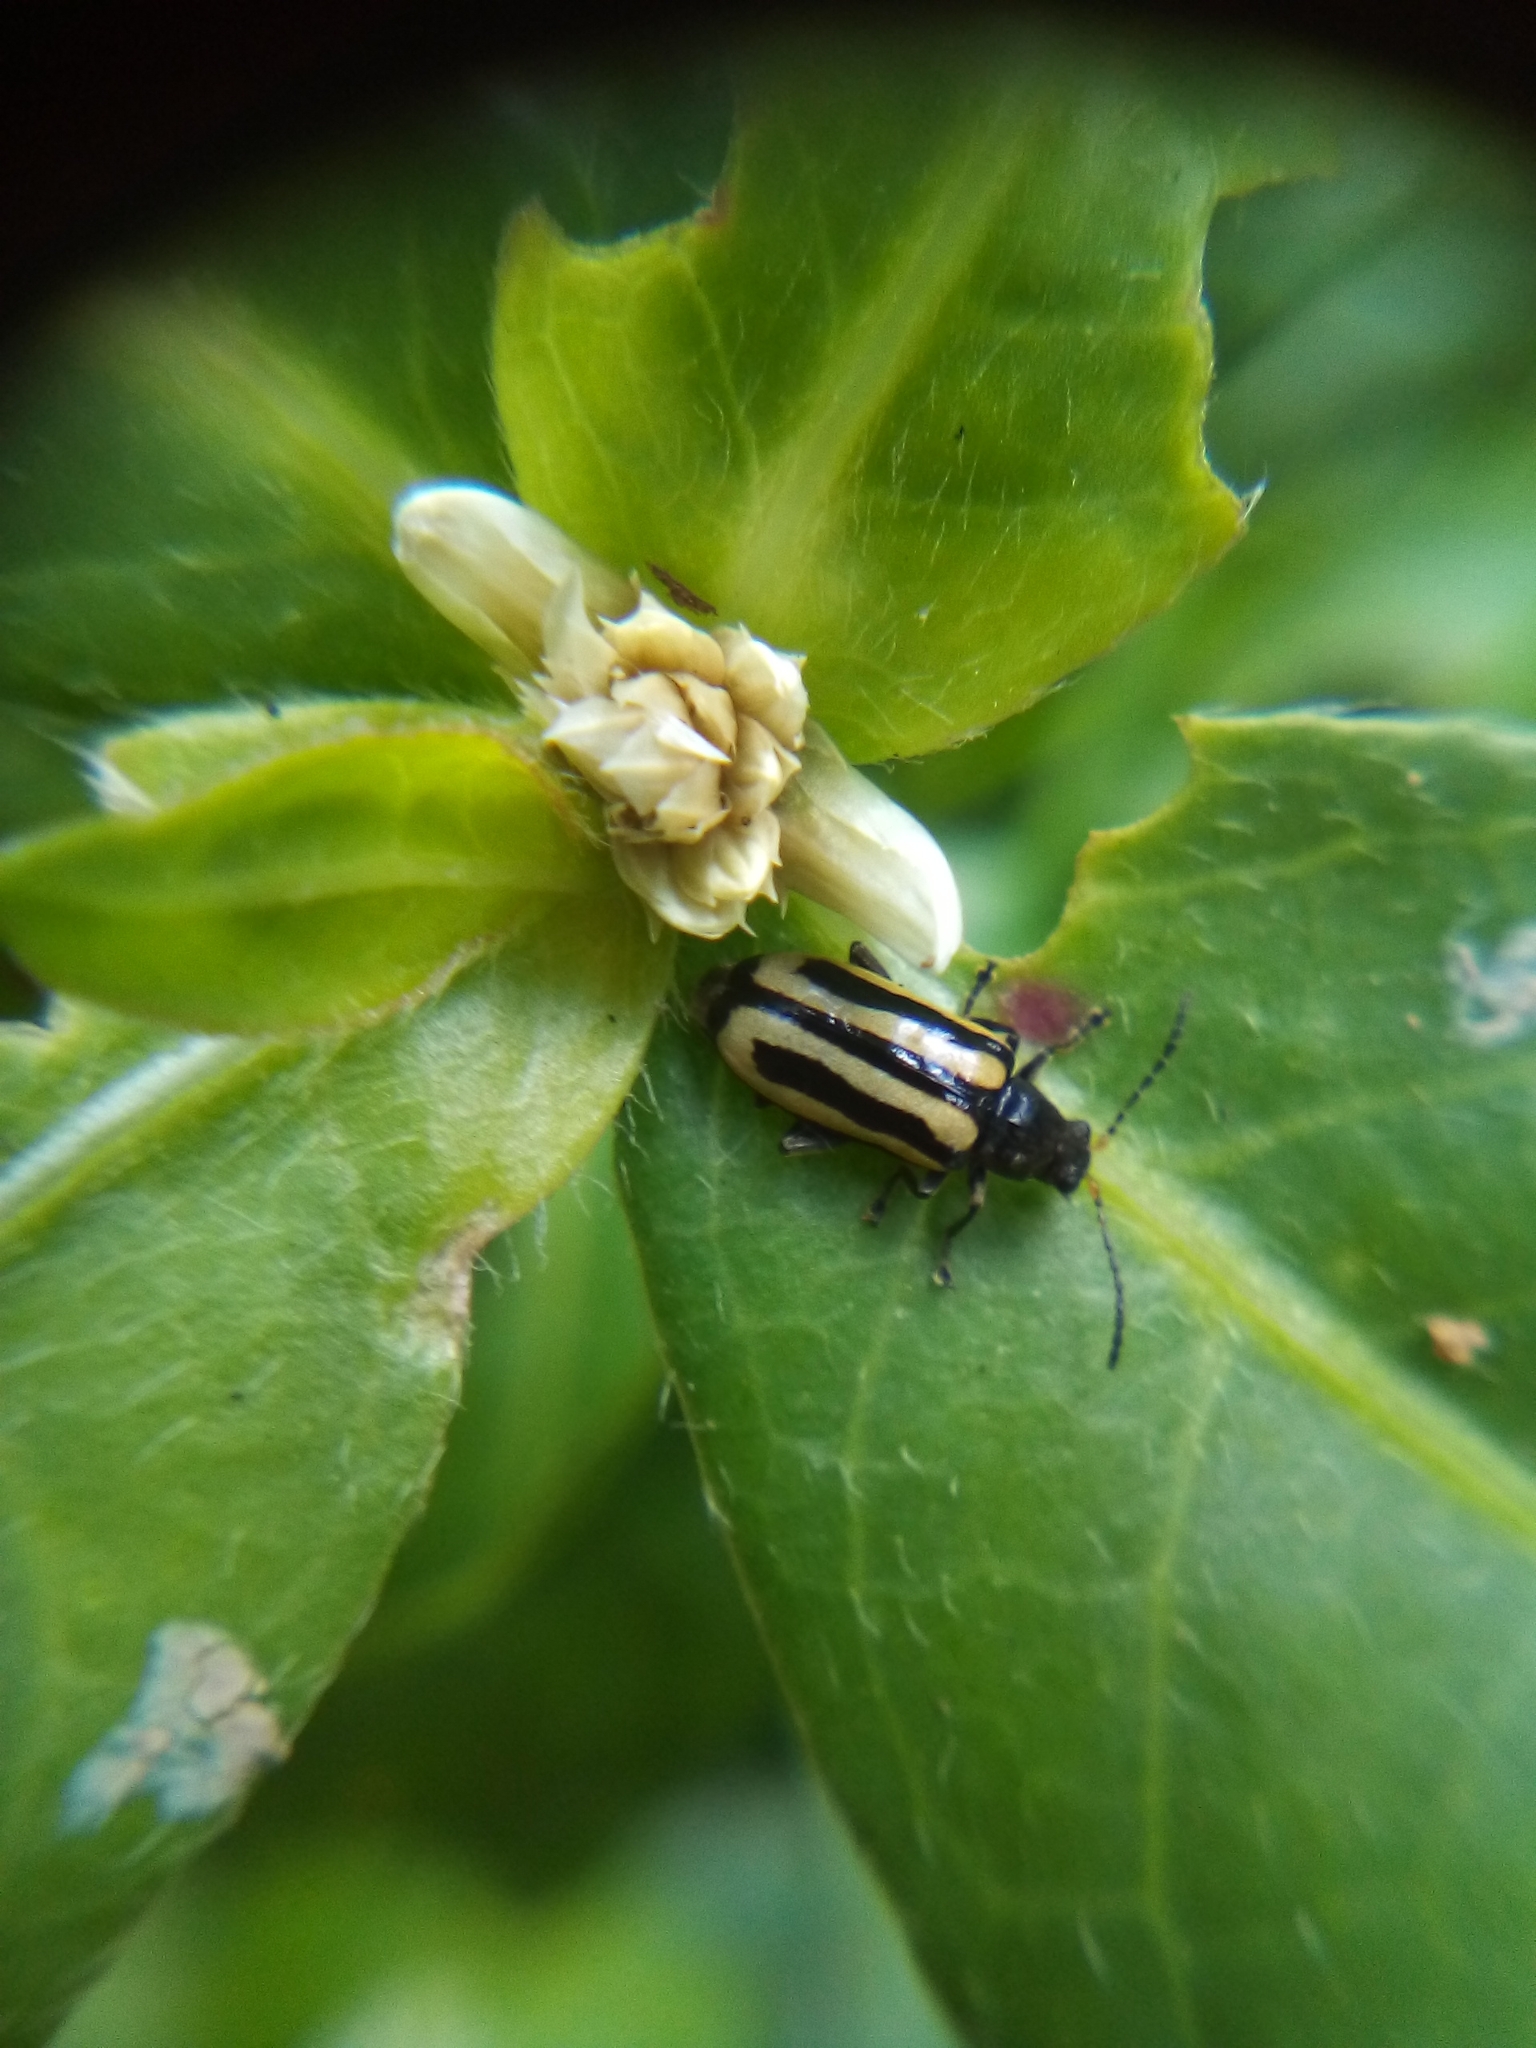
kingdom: Animalia
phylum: Arthropoda
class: Insecta
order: Coleoptera
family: Chrysomelidae
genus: Agasicles
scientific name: Agasicles hygrophila
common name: Alligatorweed flea beetle
